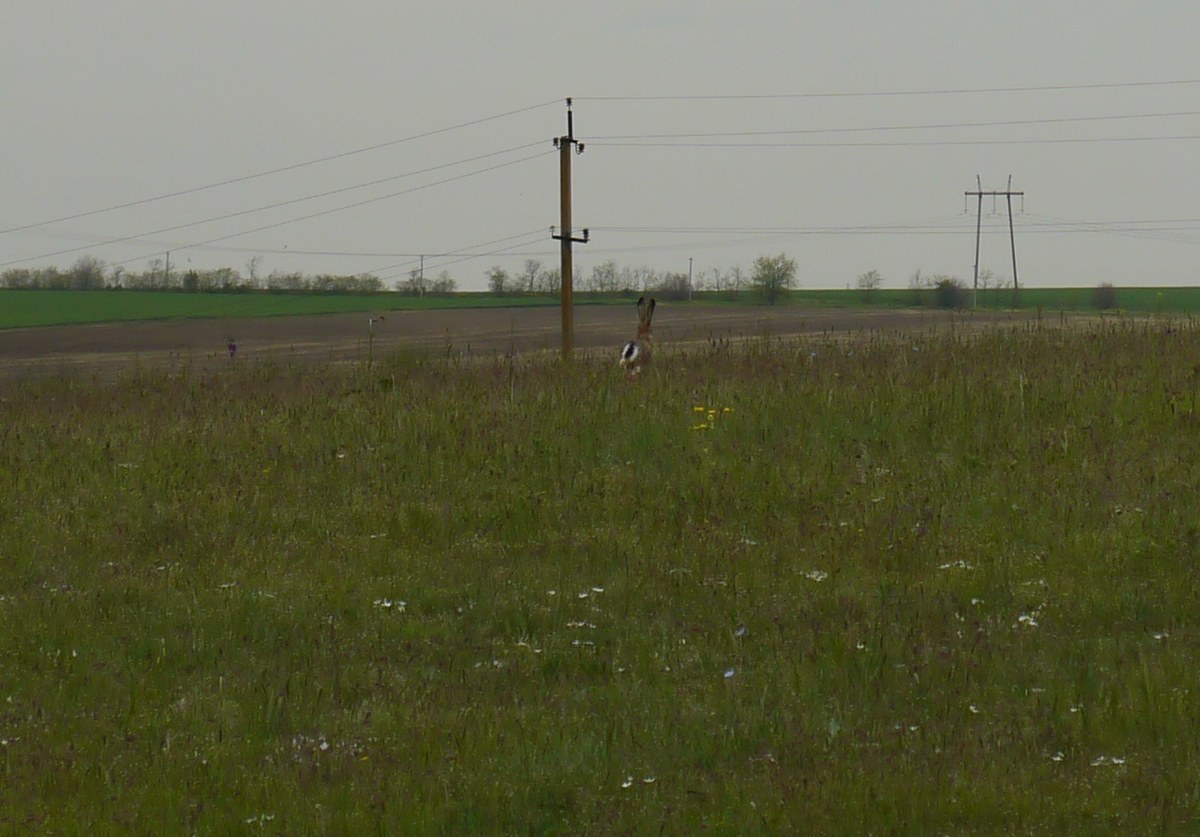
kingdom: Animalia
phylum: Chordata
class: Mammalia
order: Lagomorpha
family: Leporidae
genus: Lepus
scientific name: Lepus europaeus
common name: European hare
